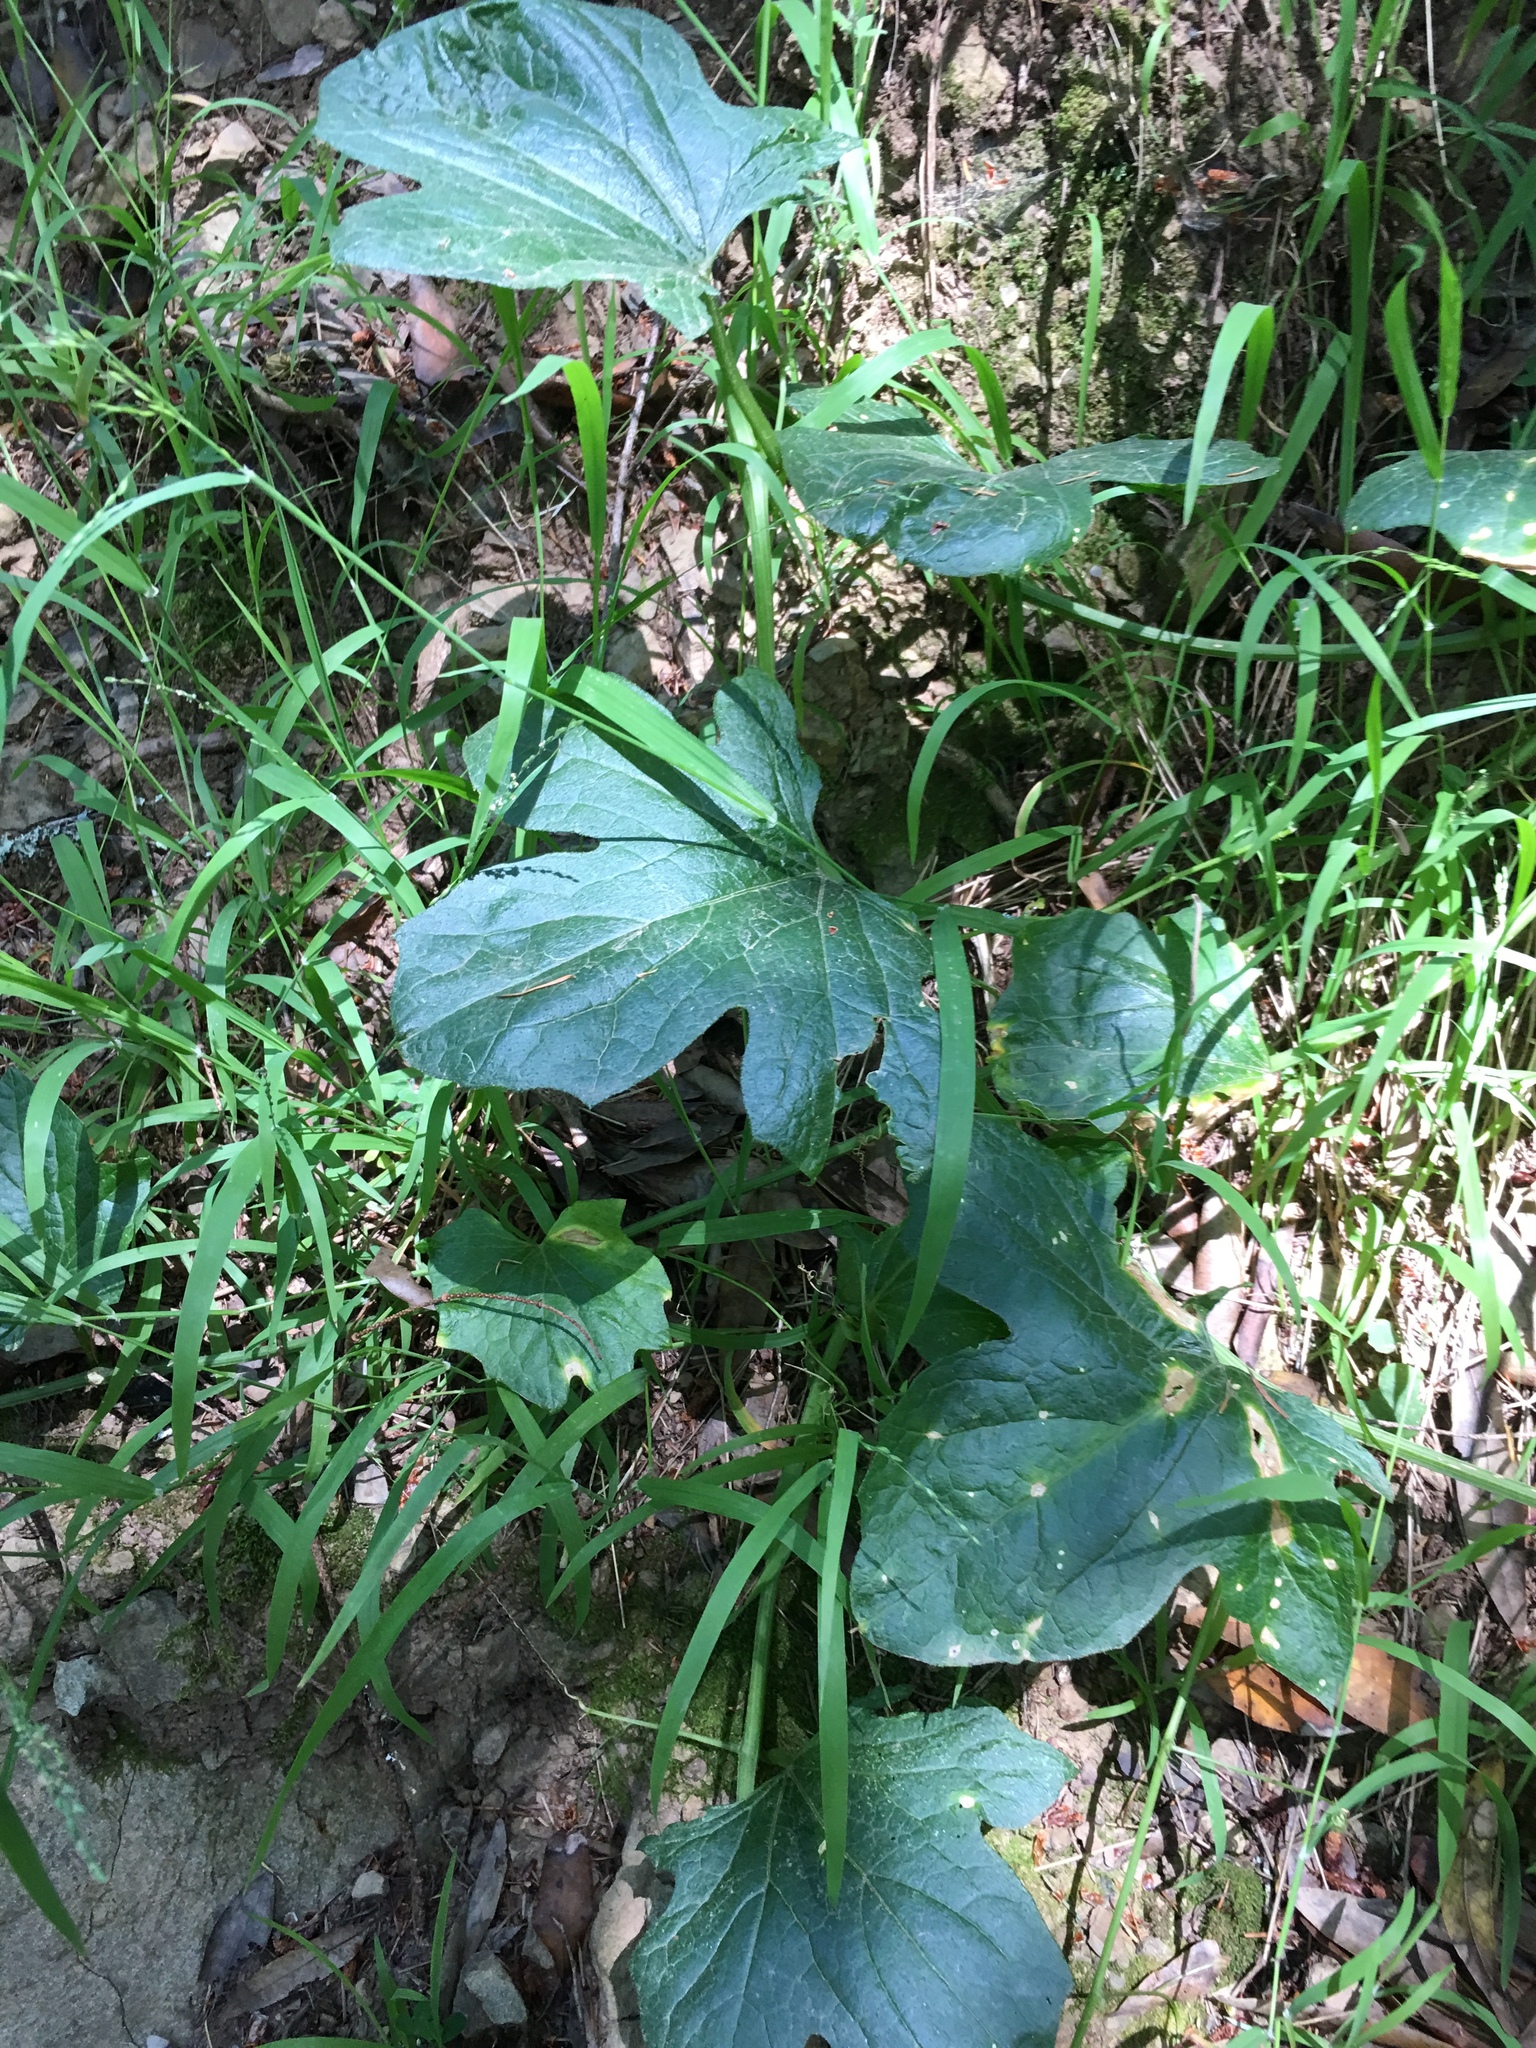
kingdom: Plantae
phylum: Tracheophyta
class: Magnoliopsida
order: Cucurbitales
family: Cucurbitaceae
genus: Marah
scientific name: Marah fabacea
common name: California manroot
